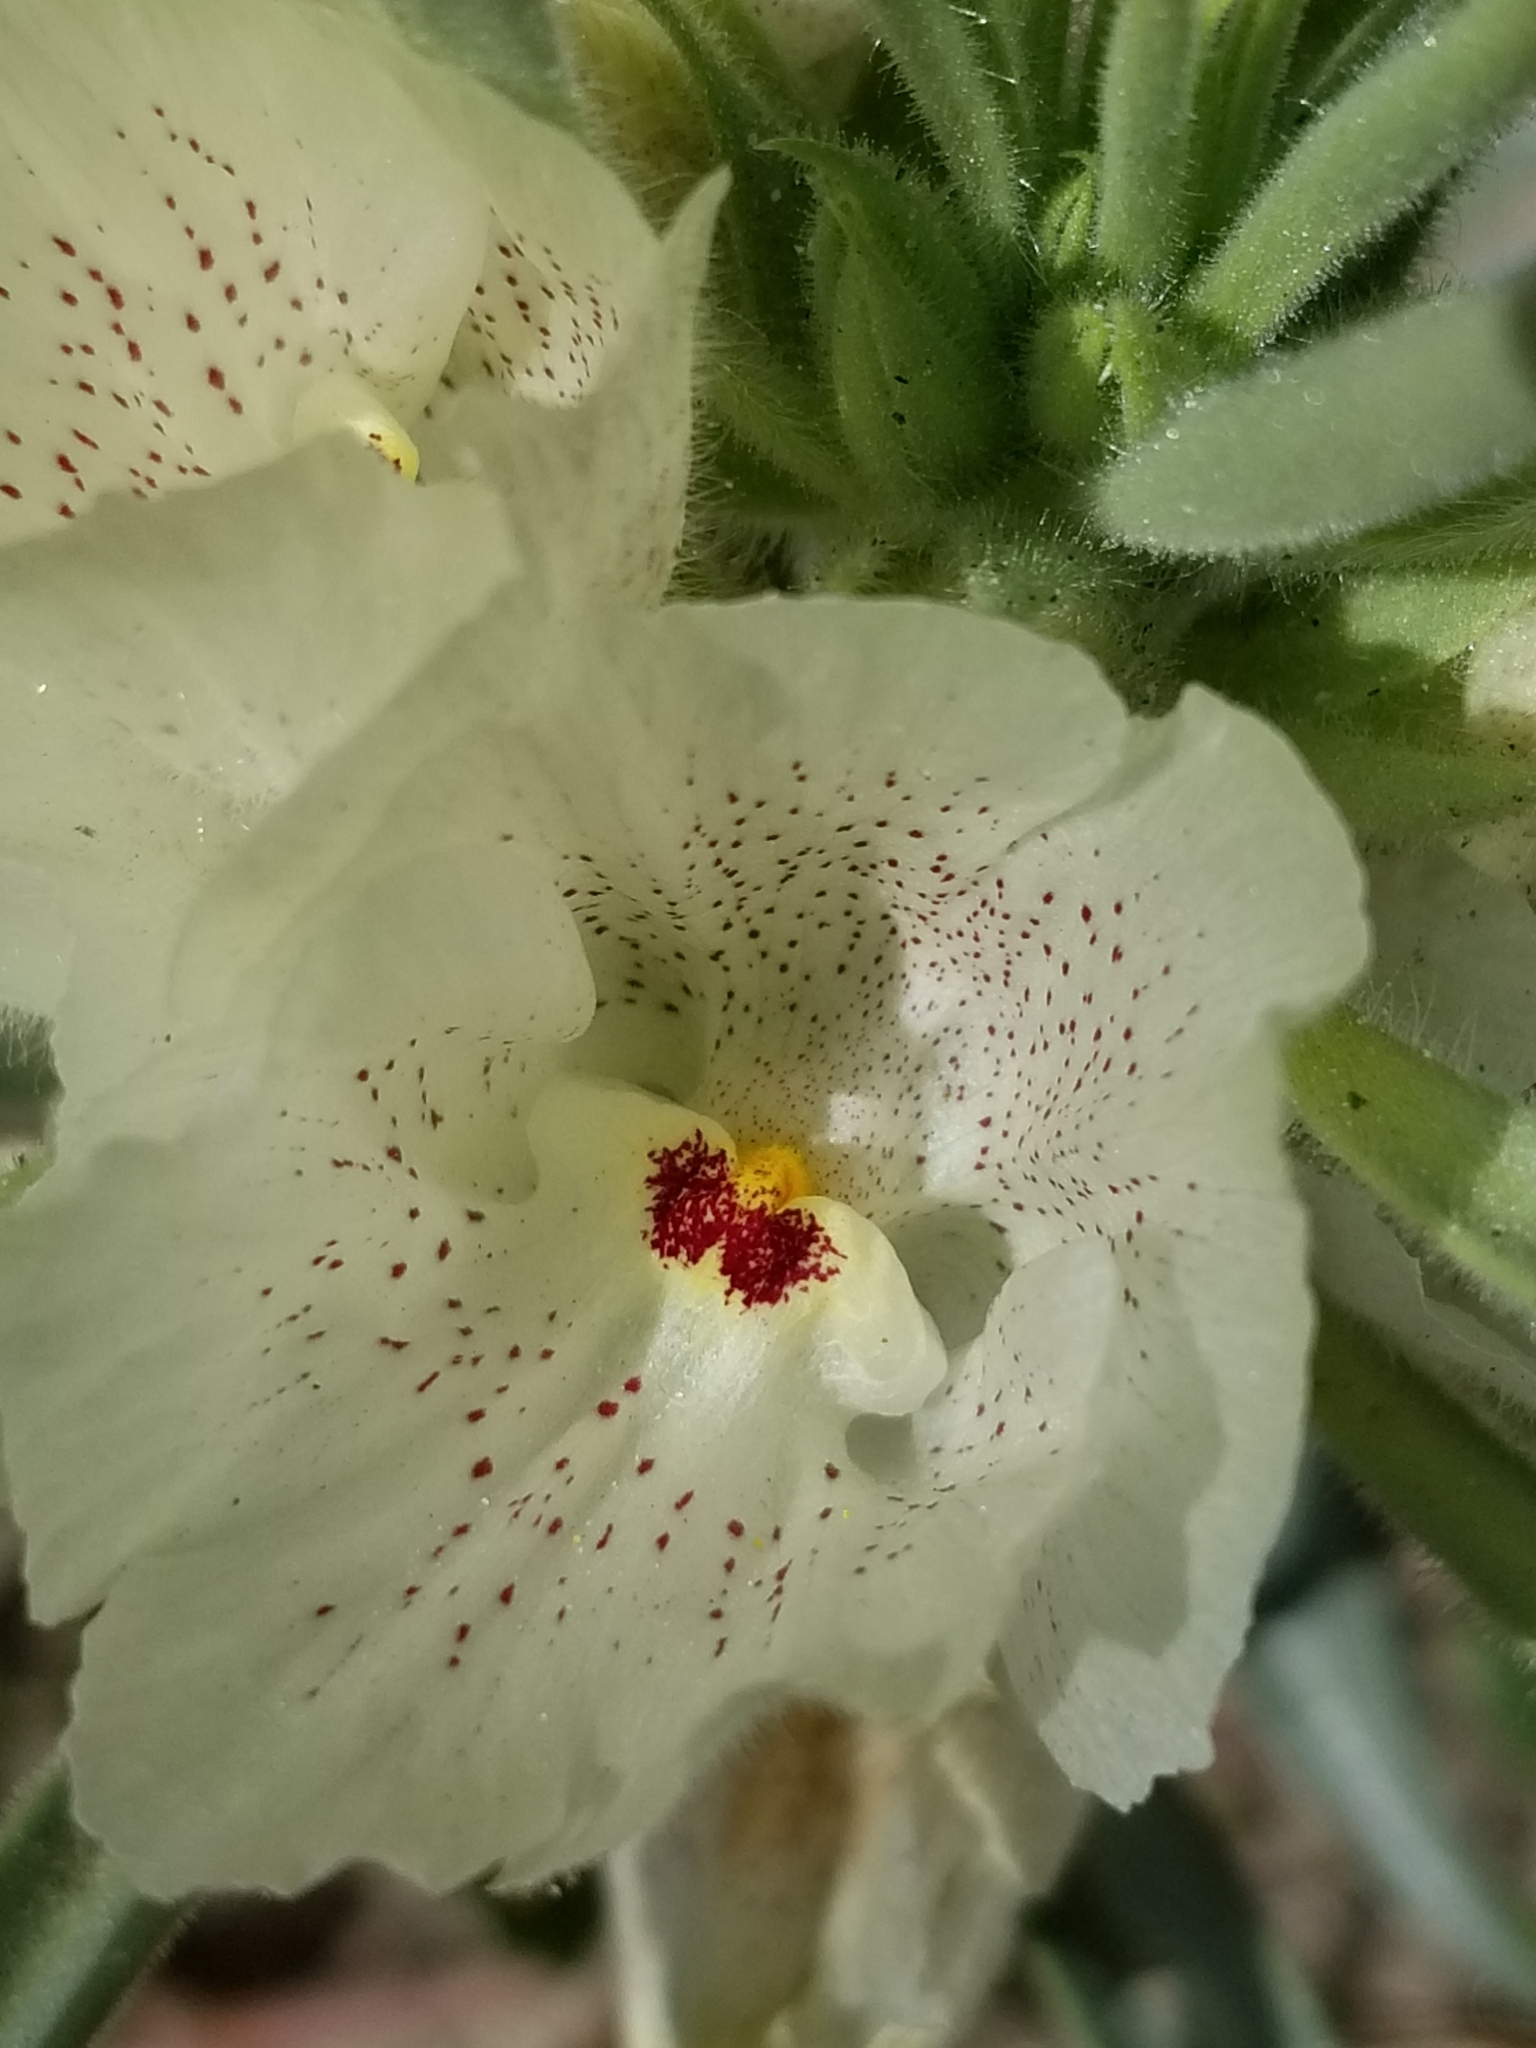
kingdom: Plantae
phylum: Tracheophyta
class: Magnoliopsida
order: Lamiales
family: Plantaginaceae
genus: Mohavea
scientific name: Mohavea confertiflora
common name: Ghost flower
